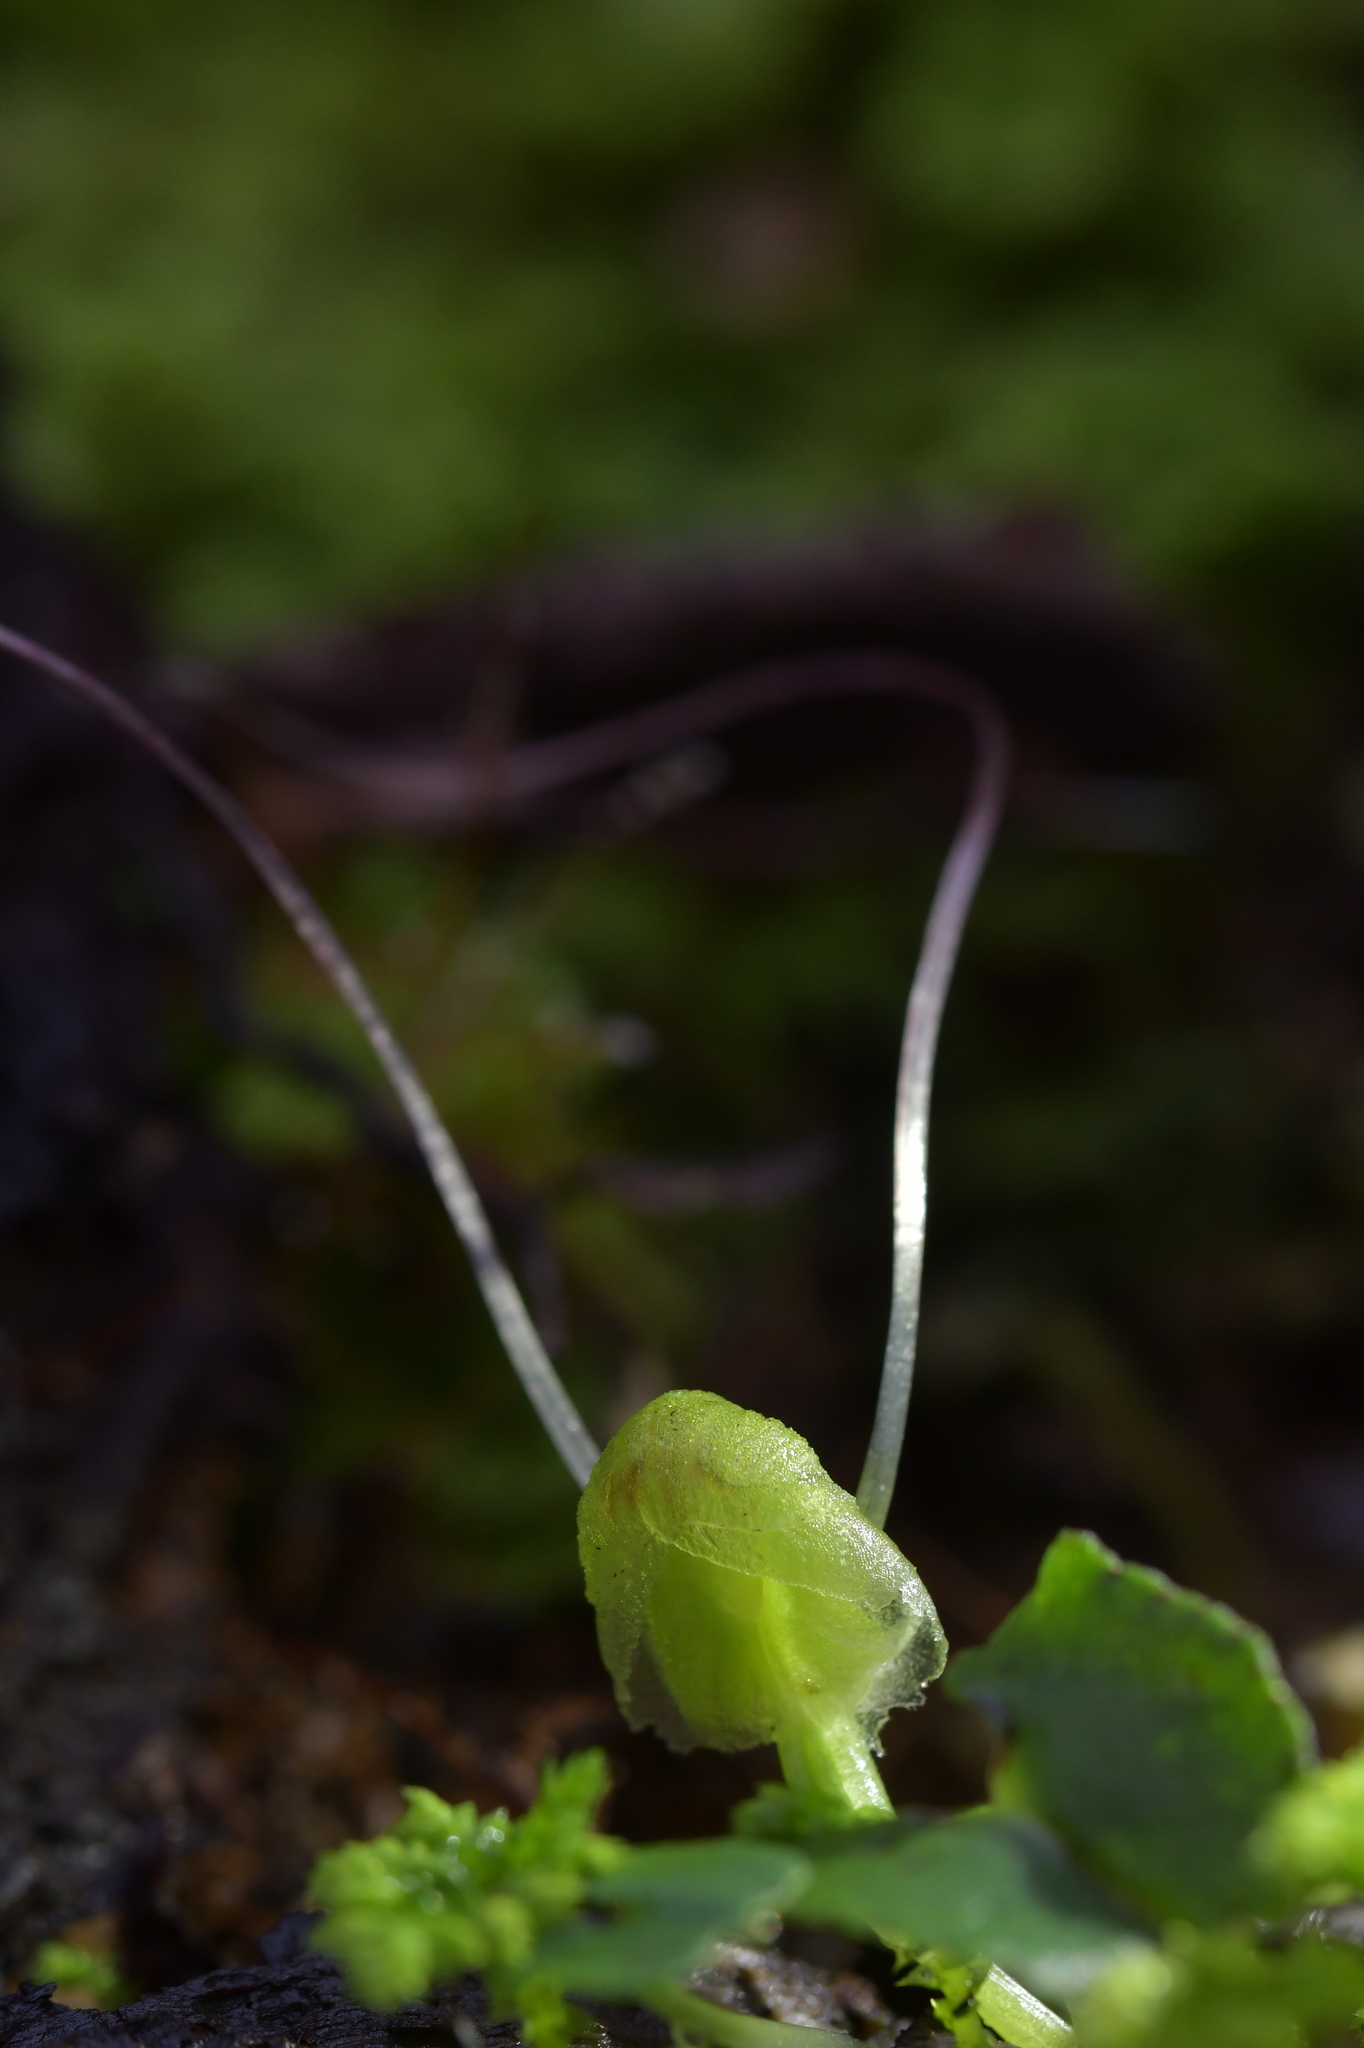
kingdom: Plantae
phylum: Tracheophyta
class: Liliopsida
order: Asparagales
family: Orchidaceae
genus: Corybas
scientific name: Corybas walliae
